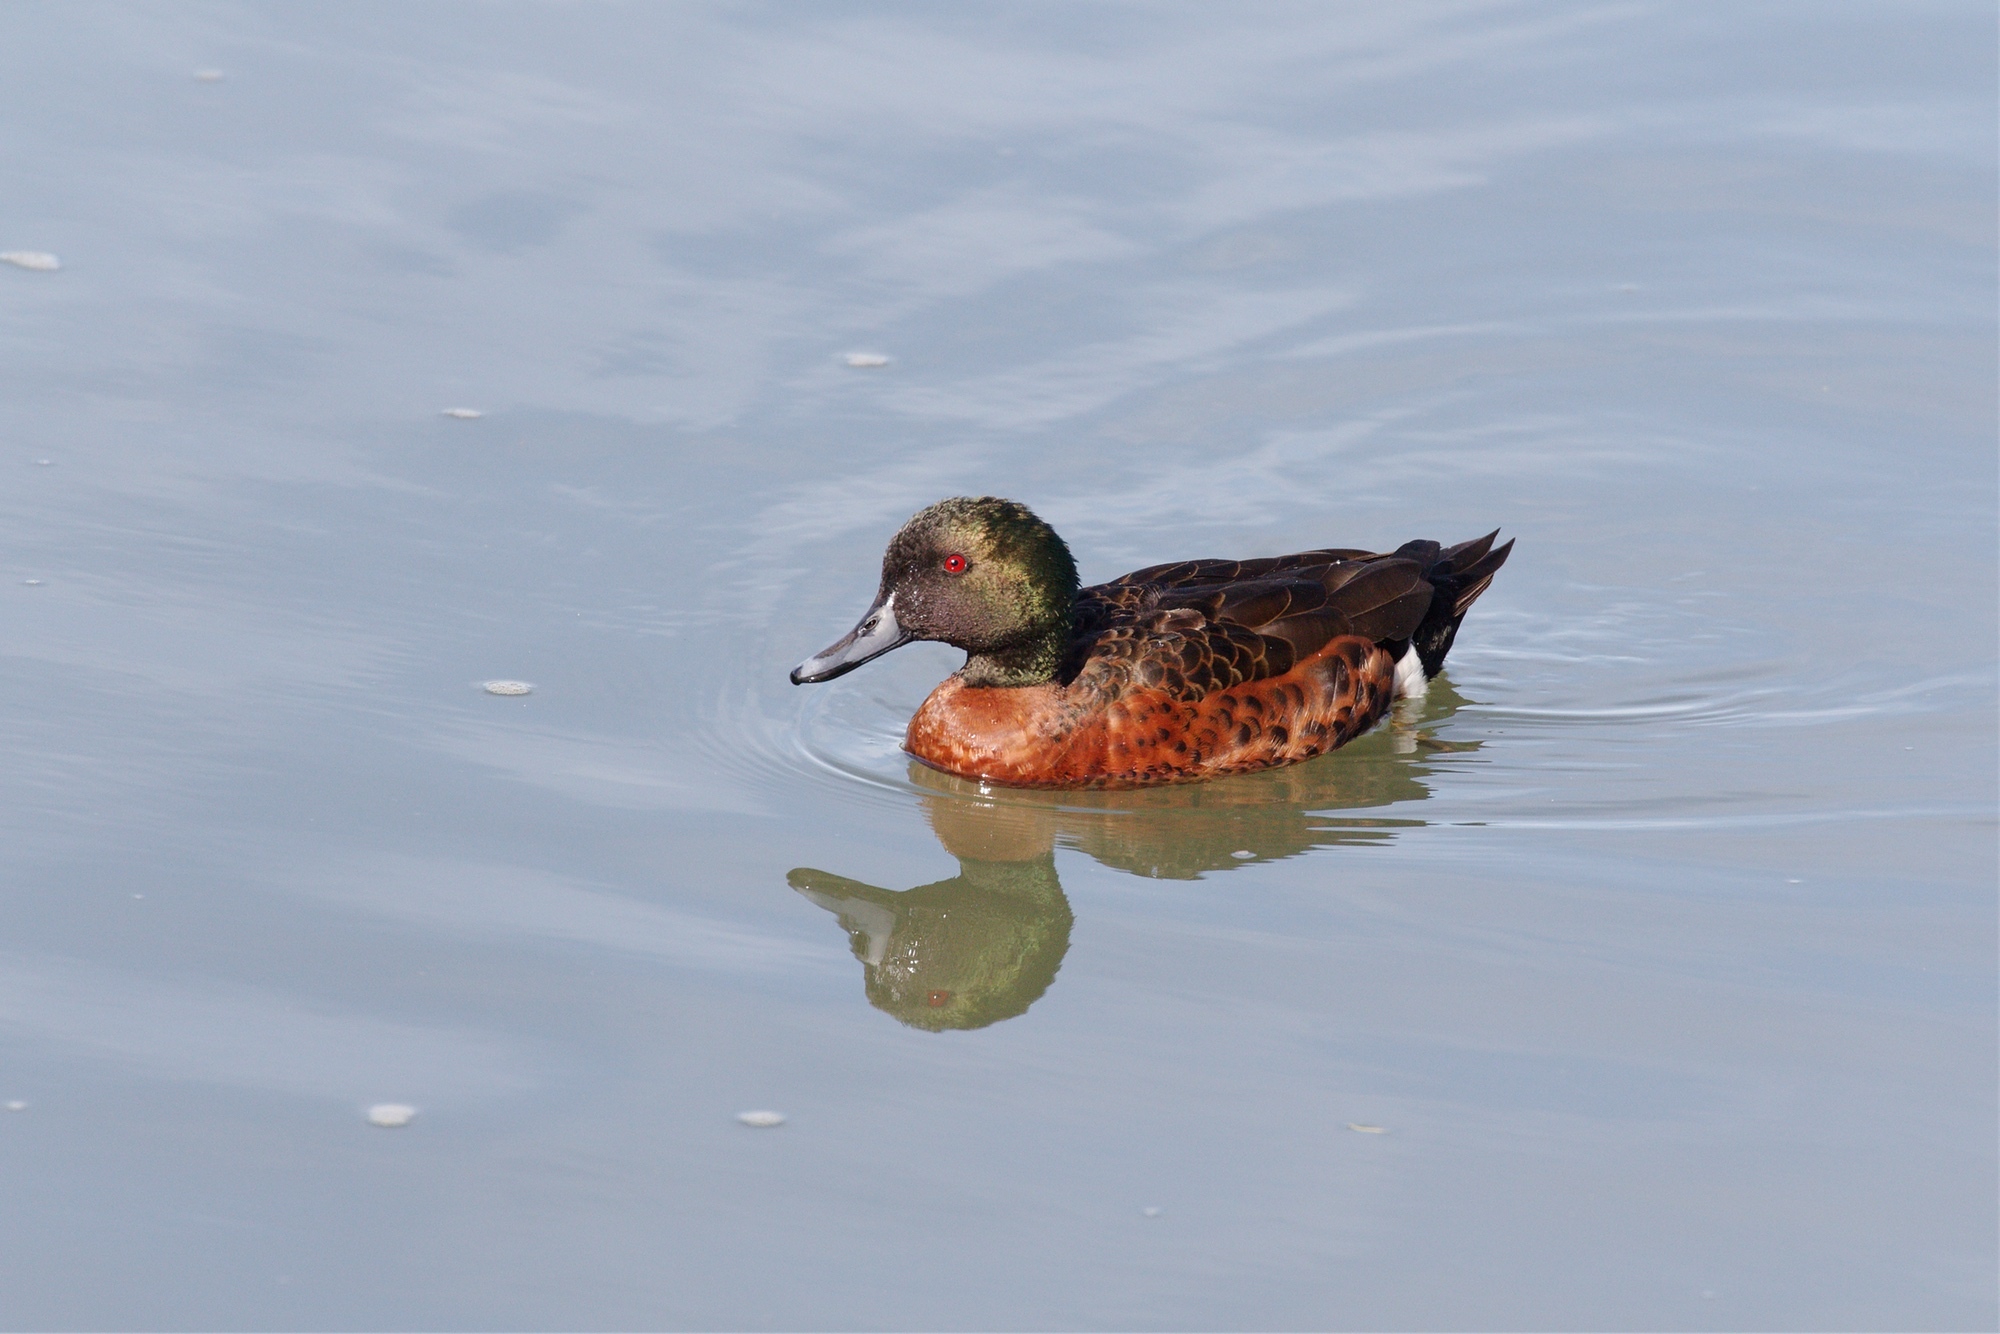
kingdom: Animalia
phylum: Chordata
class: Aves
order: Anseriformes
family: Anatidae
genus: Anas
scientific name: Anas castanea
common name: Chestnut teal
